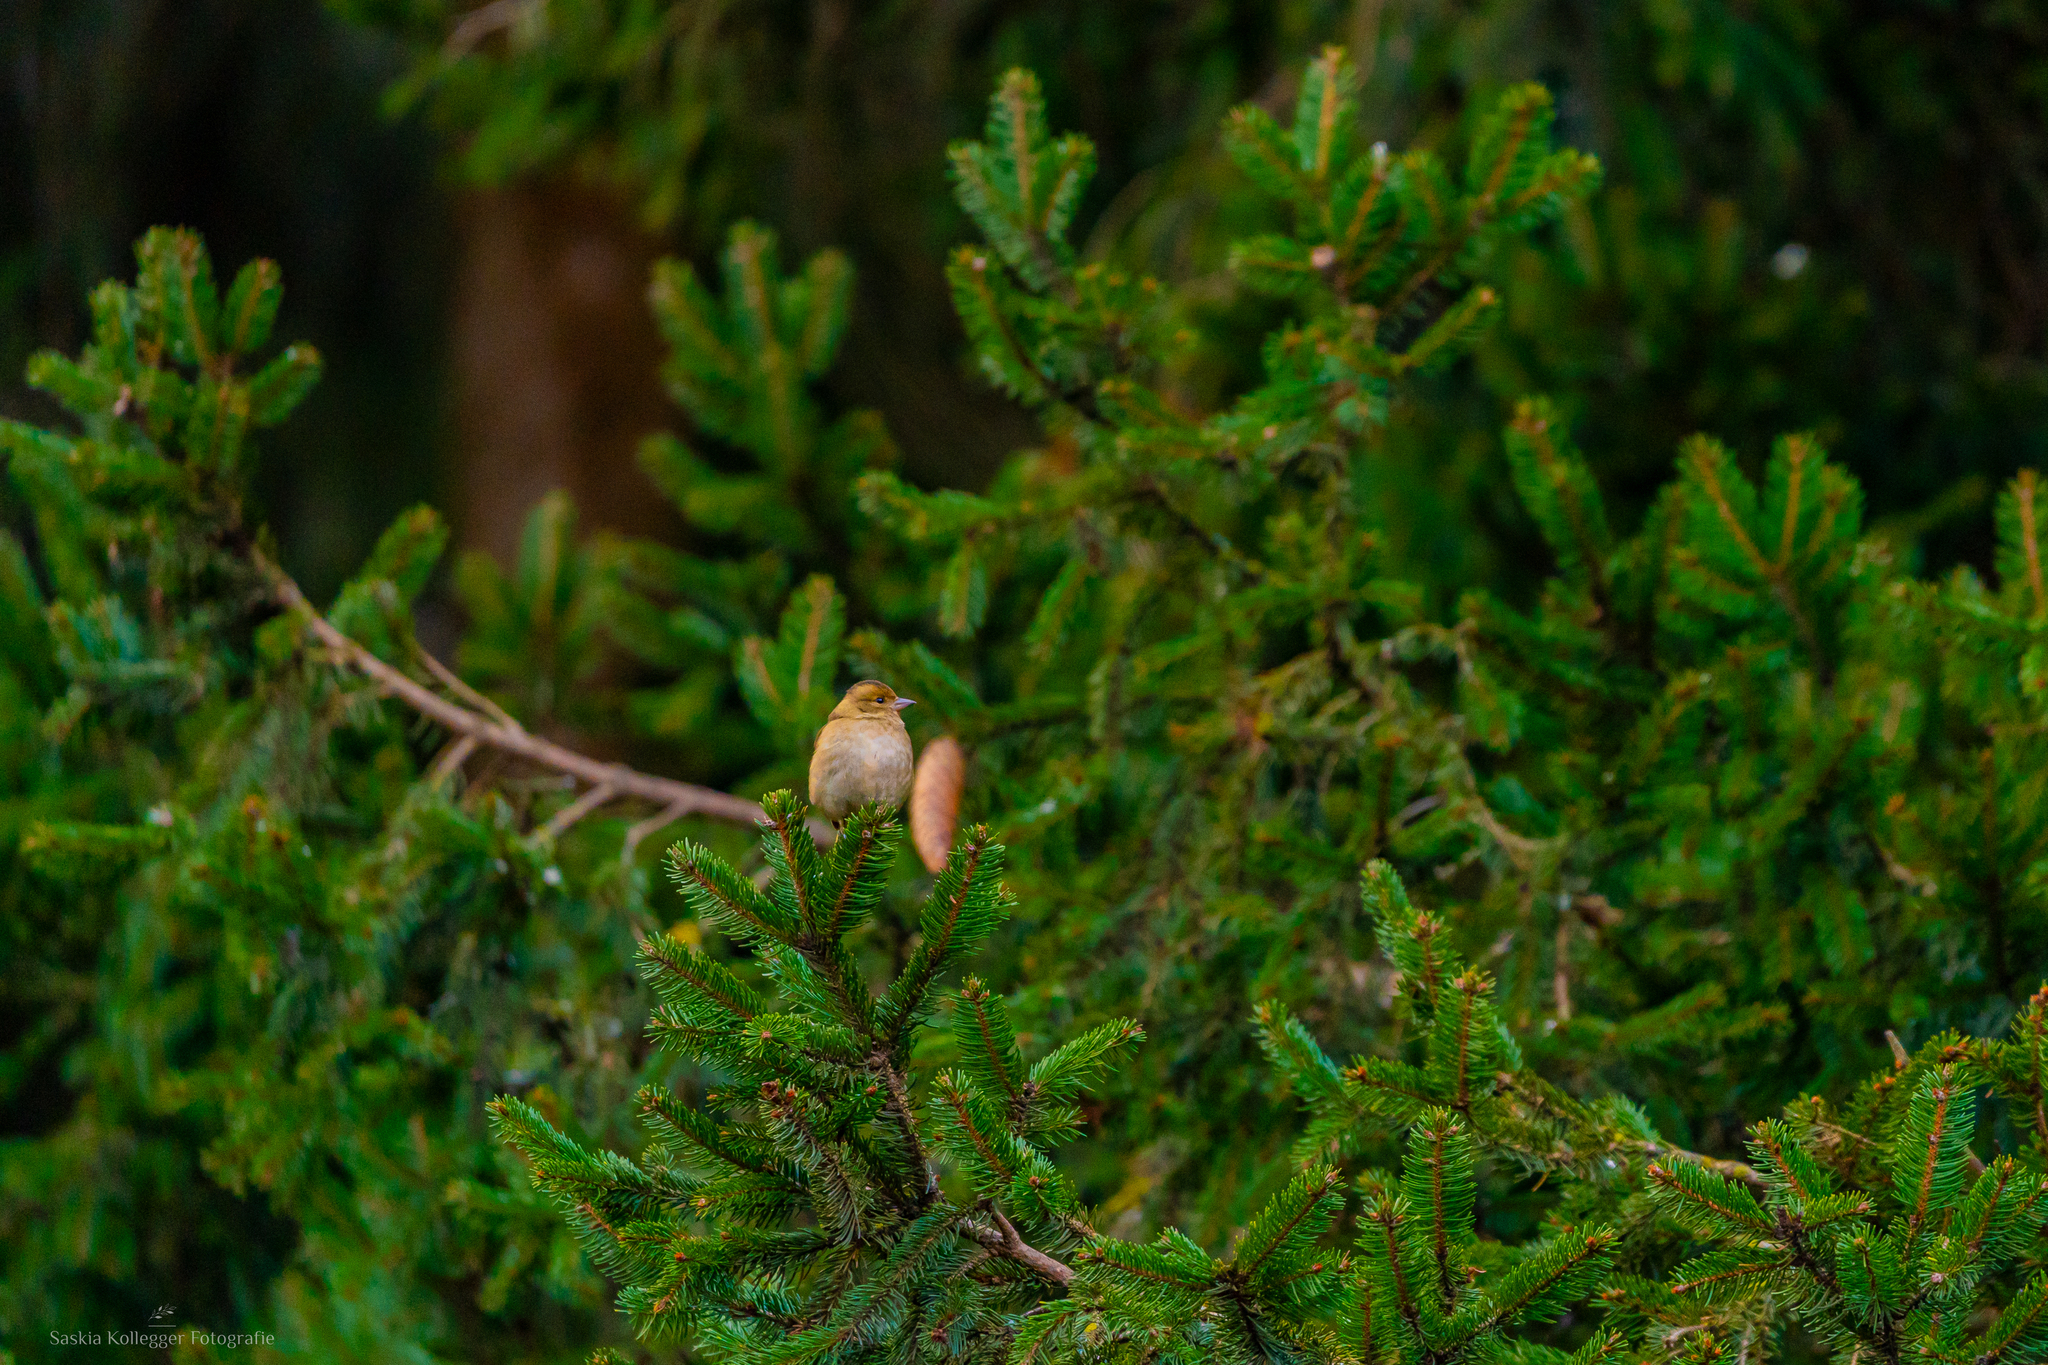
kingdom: Animalia
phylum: Chordata
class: Aves
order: Passeriformes
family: Fringillidae
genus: Fringilla
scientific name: Fringilla coelebs
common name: Common chaffinch
